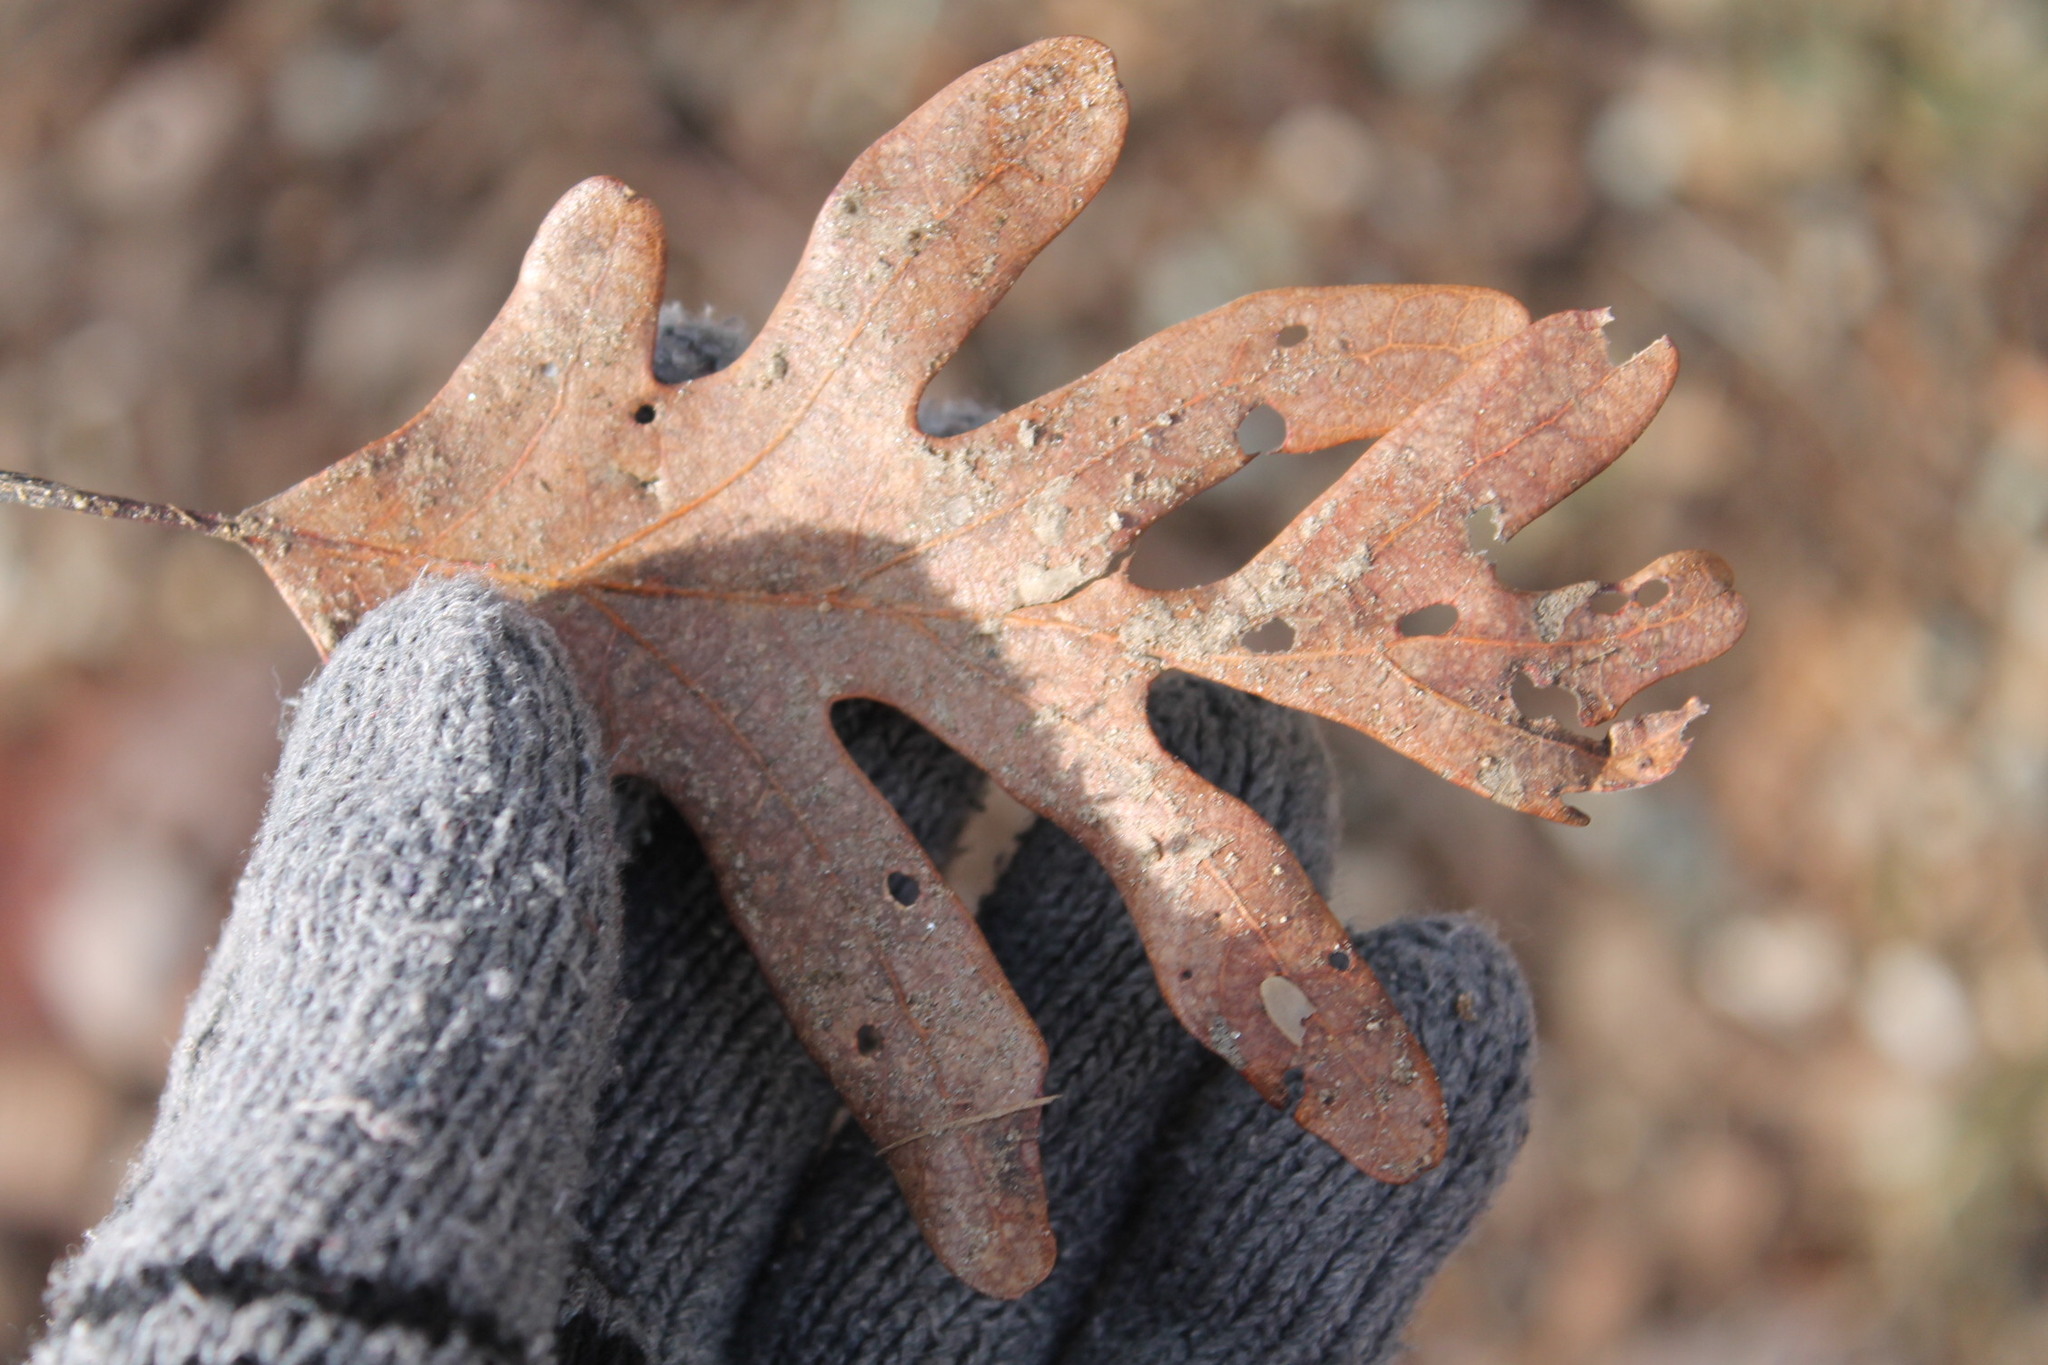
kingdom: Plantae
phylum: Tracheophyta
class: Magnoliopsida
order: Fagales
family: Fagaceae
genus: Quercus
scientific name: Quercus alba
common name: White oak
